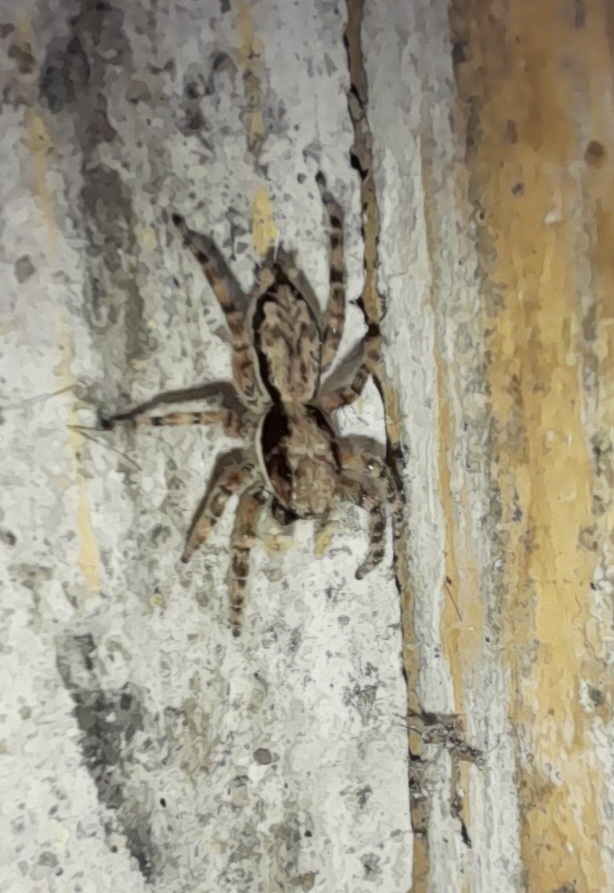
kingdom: Animalia
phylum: Arthropoda
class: Arachnida
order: Araneae
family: Salticidae
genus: Menemerus
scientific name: Menemerus bivittatus
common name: Gray wall jumper
